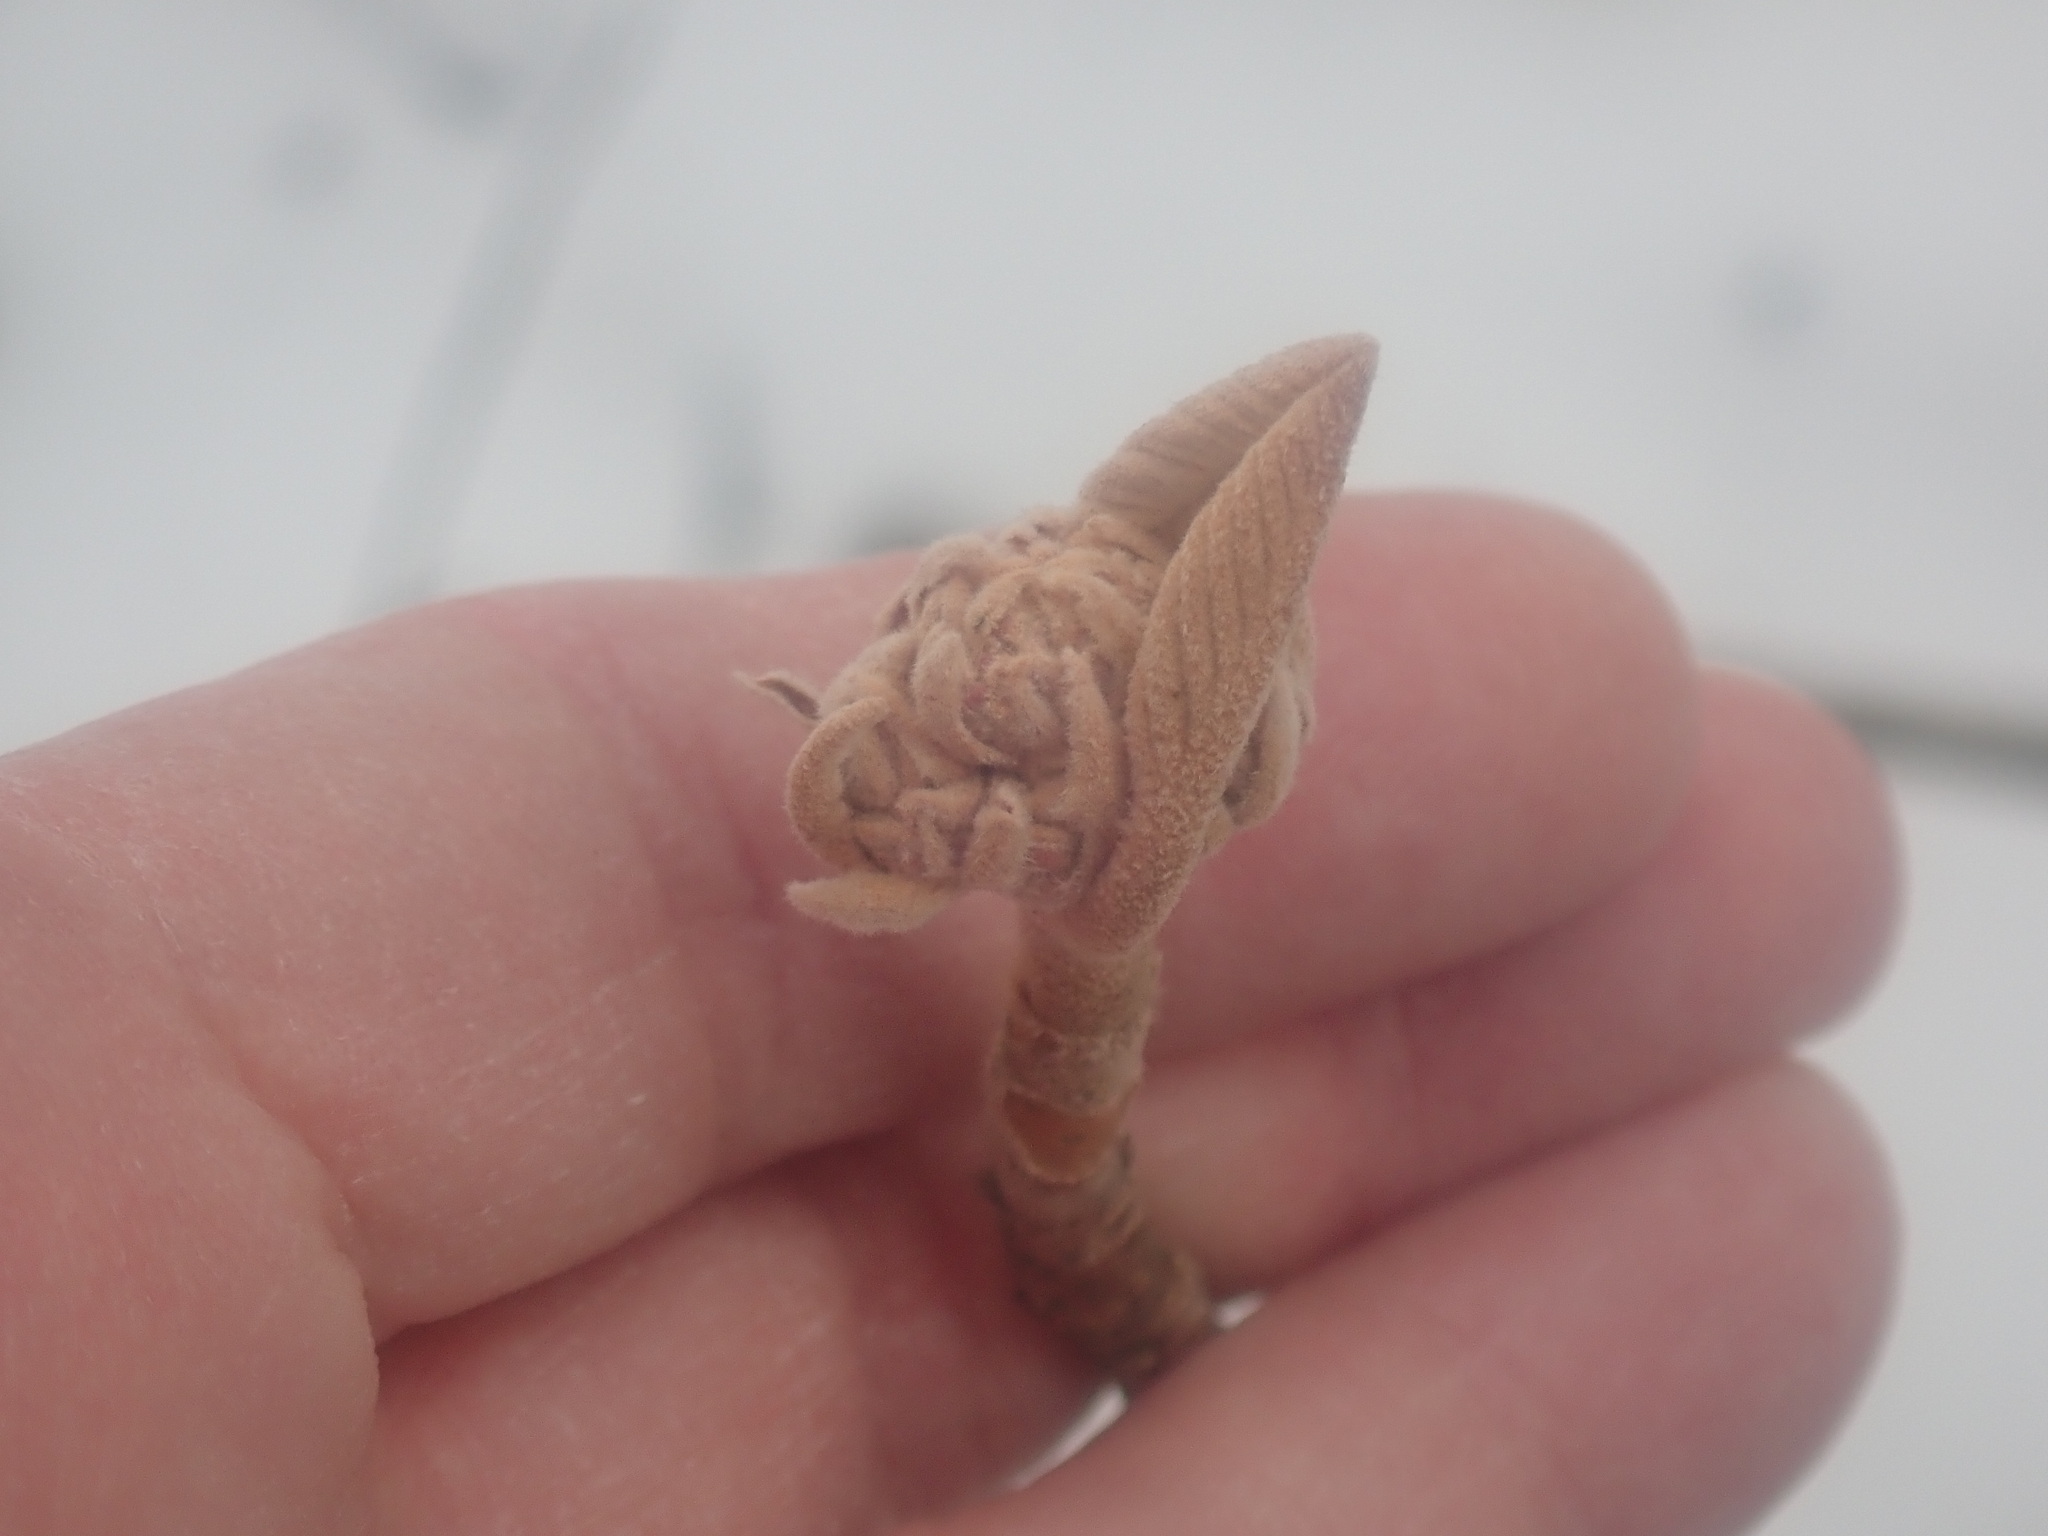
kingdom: Plantae
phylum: Tracheophyta
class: Magnoliopsida
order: Dipsacales
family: Viburnaceae
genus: Viburnum
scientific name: Viburnum lantanoides
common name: Hobblebush
